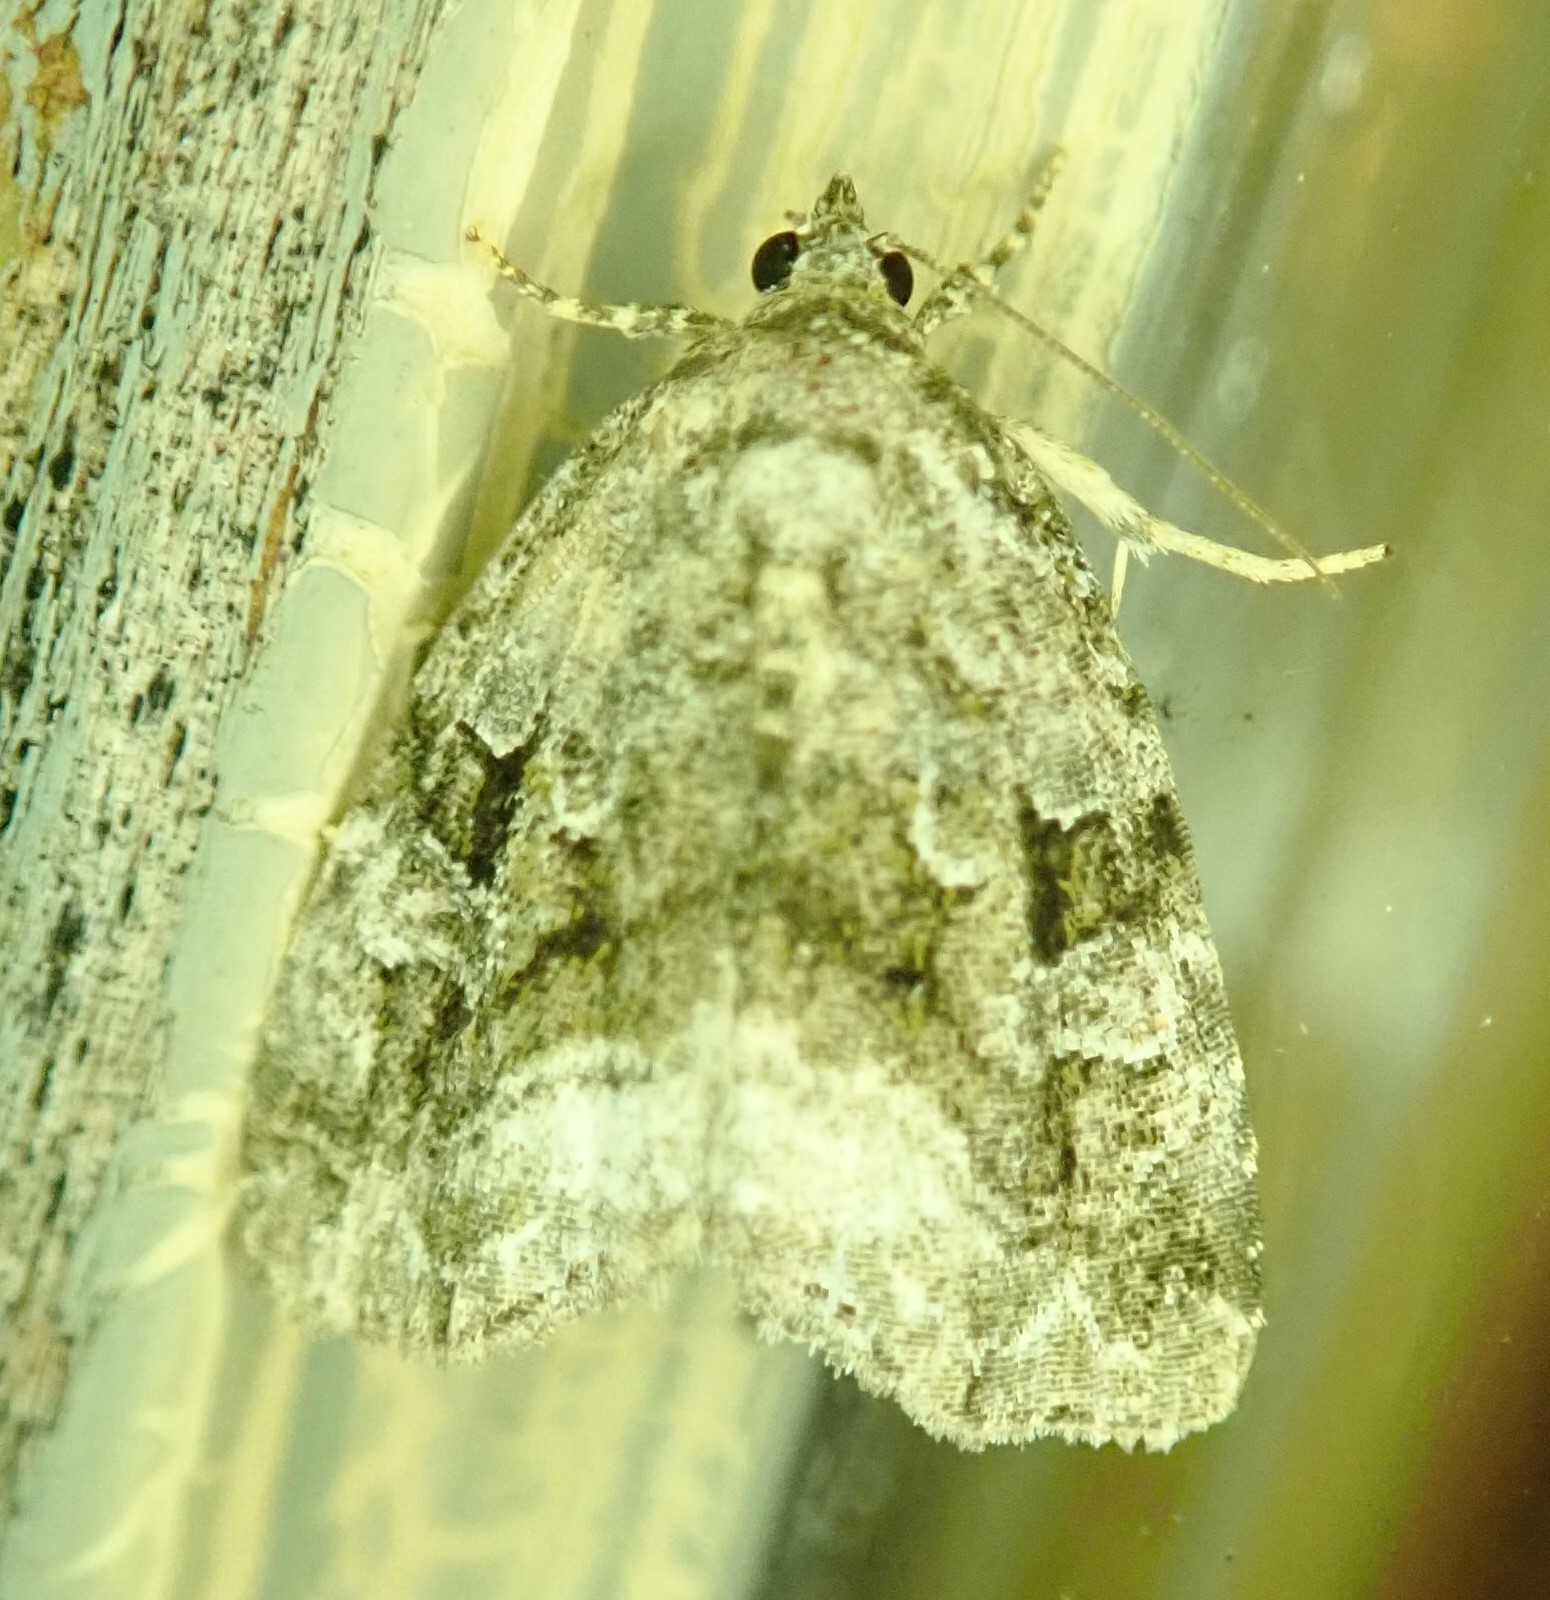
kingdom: Animalia
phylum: Arthropoda
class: Insecta
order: Lepidoptera
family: Noctuidae
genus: Protodeltote
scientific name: Protodeltote muscosula
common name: Large mossy glyph
